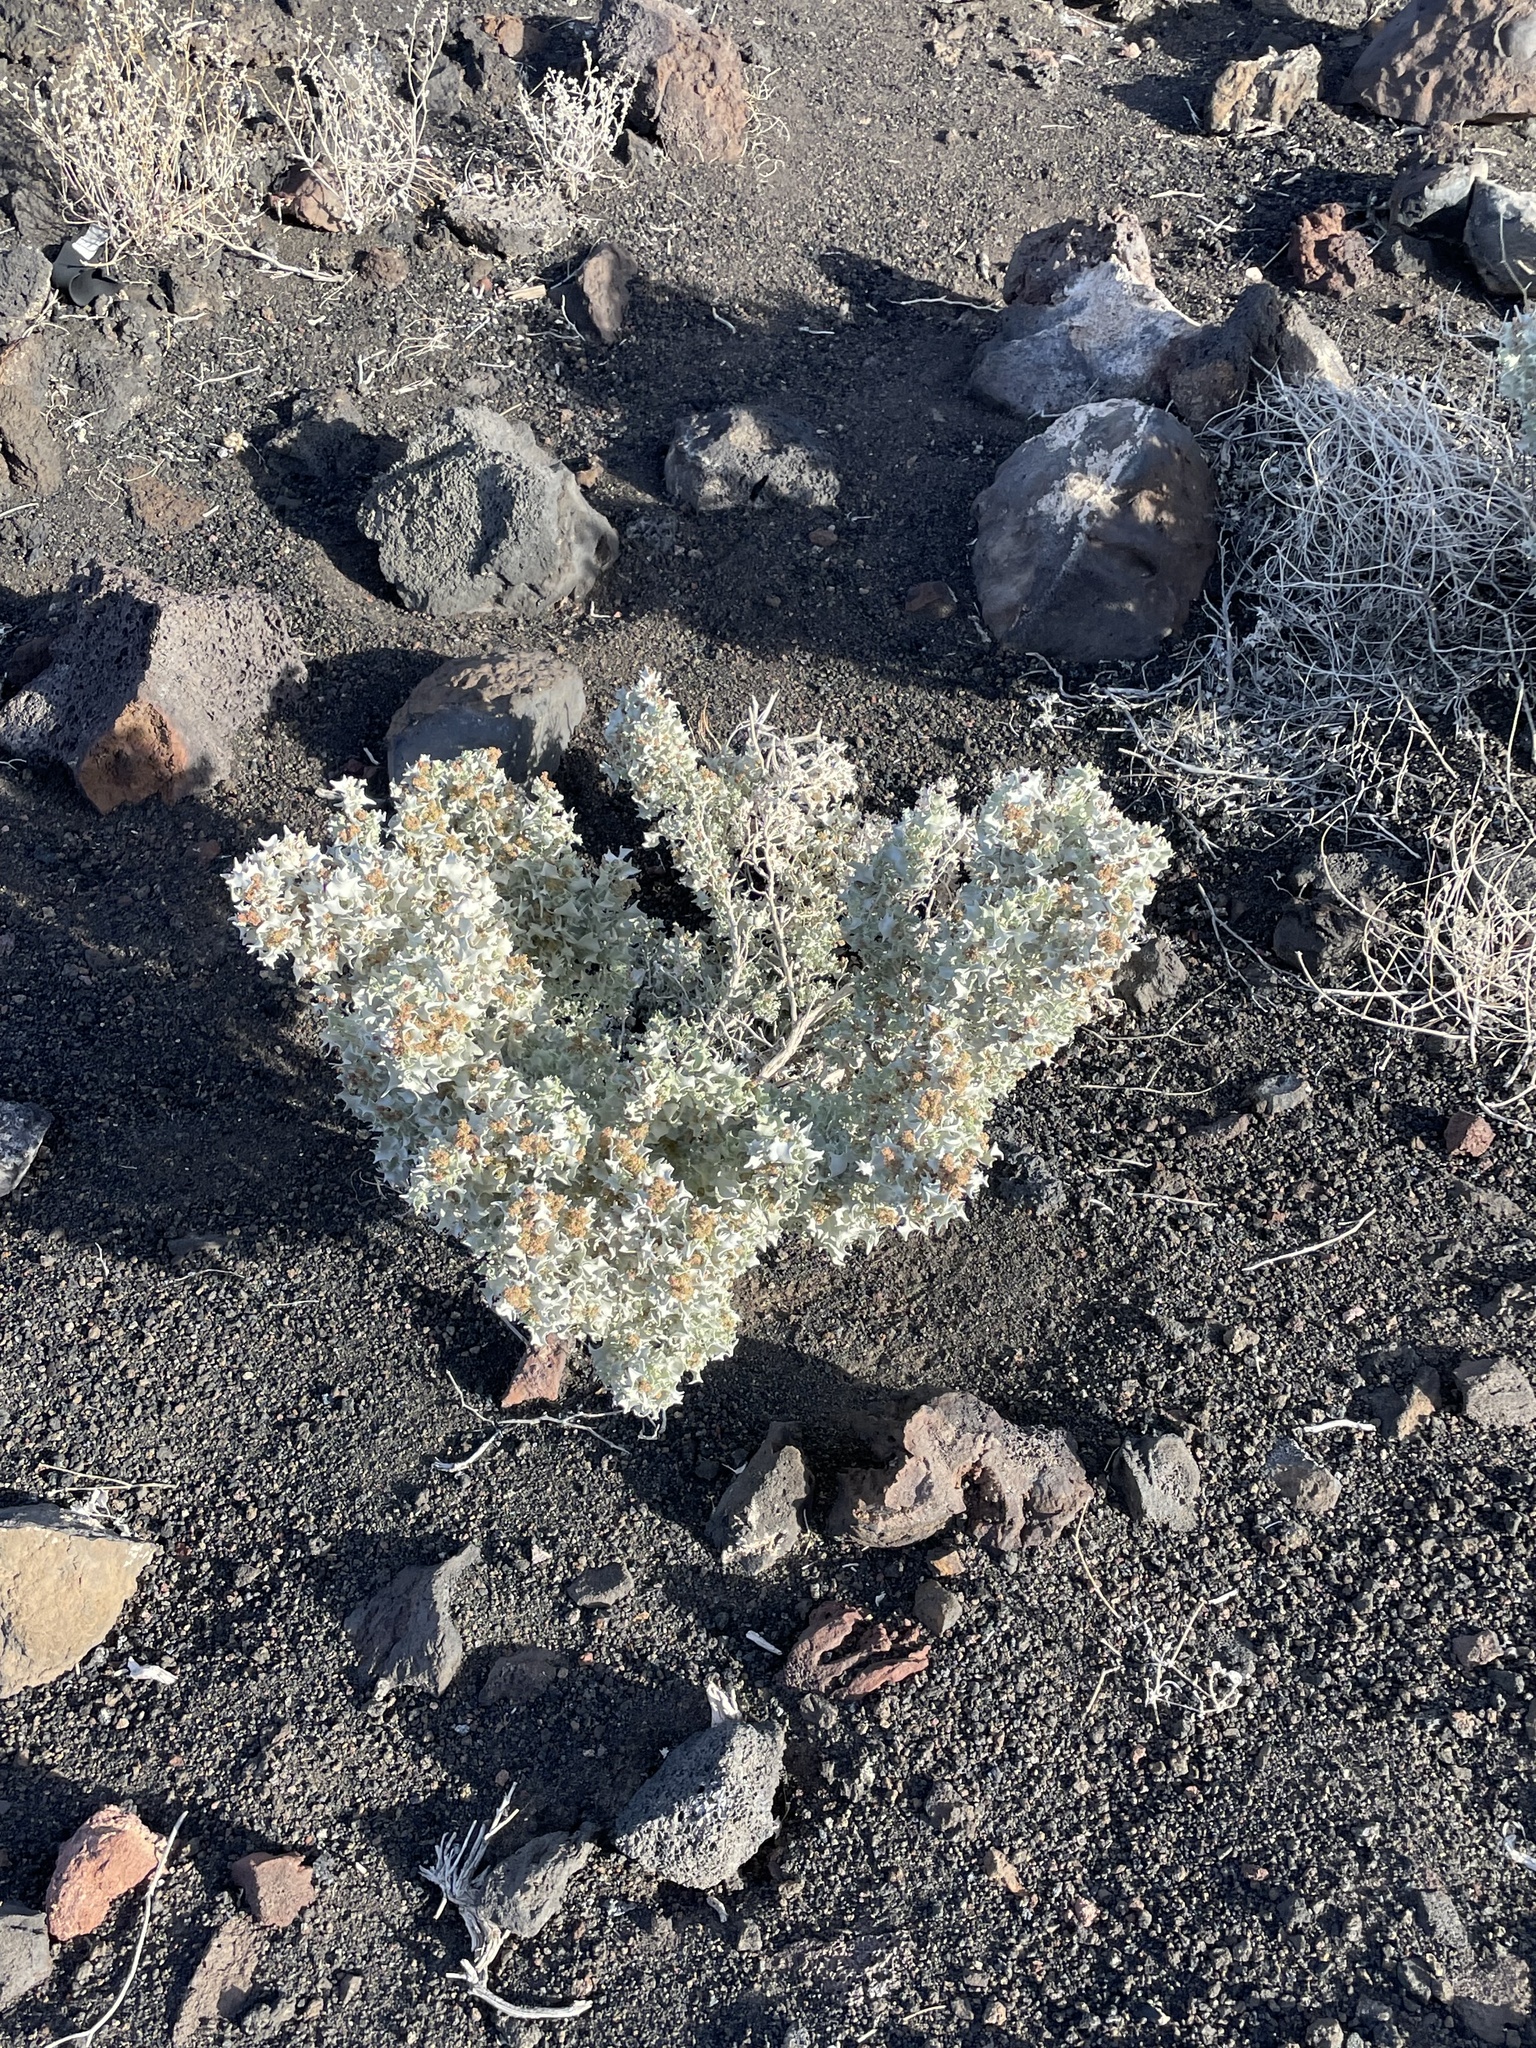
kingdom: Plantae
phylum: Tracheophyta
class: Magnoliopsida
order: Caryophyllales
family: Amaranthaceae
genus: Atriplex
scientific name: Atriplex hymenelytra
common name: Desert-holly
